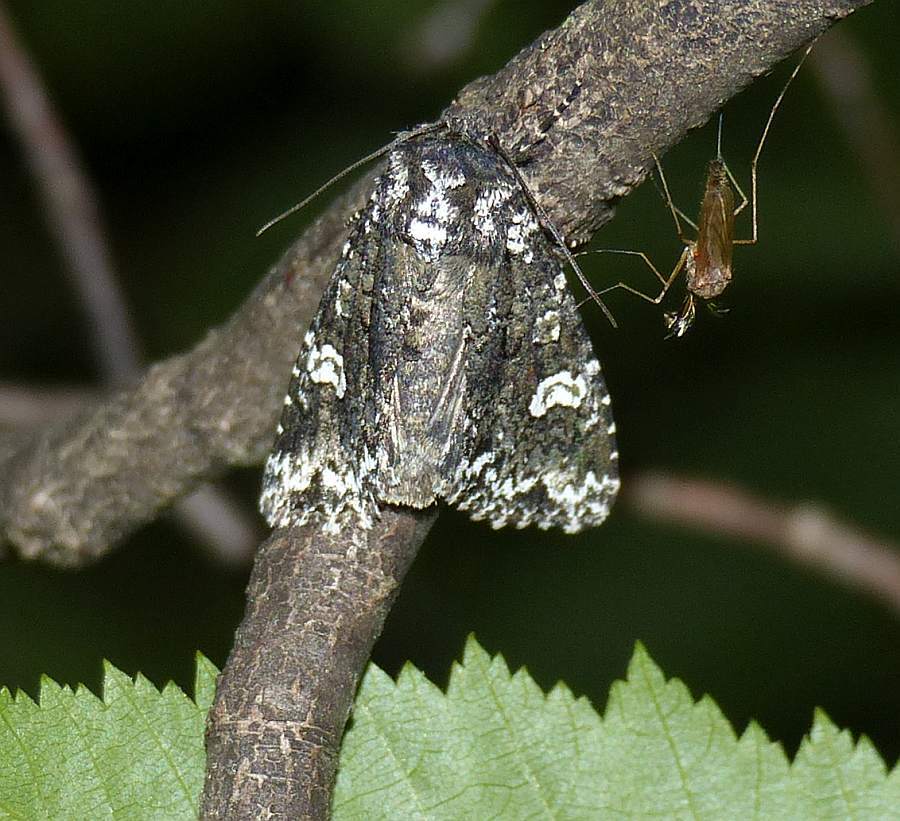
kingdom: Animalia
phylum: Arthropoda
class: Insecta
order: Lepidoptera
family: Noctuidae
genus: Melanchra
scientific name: Melanchra adjuncta
